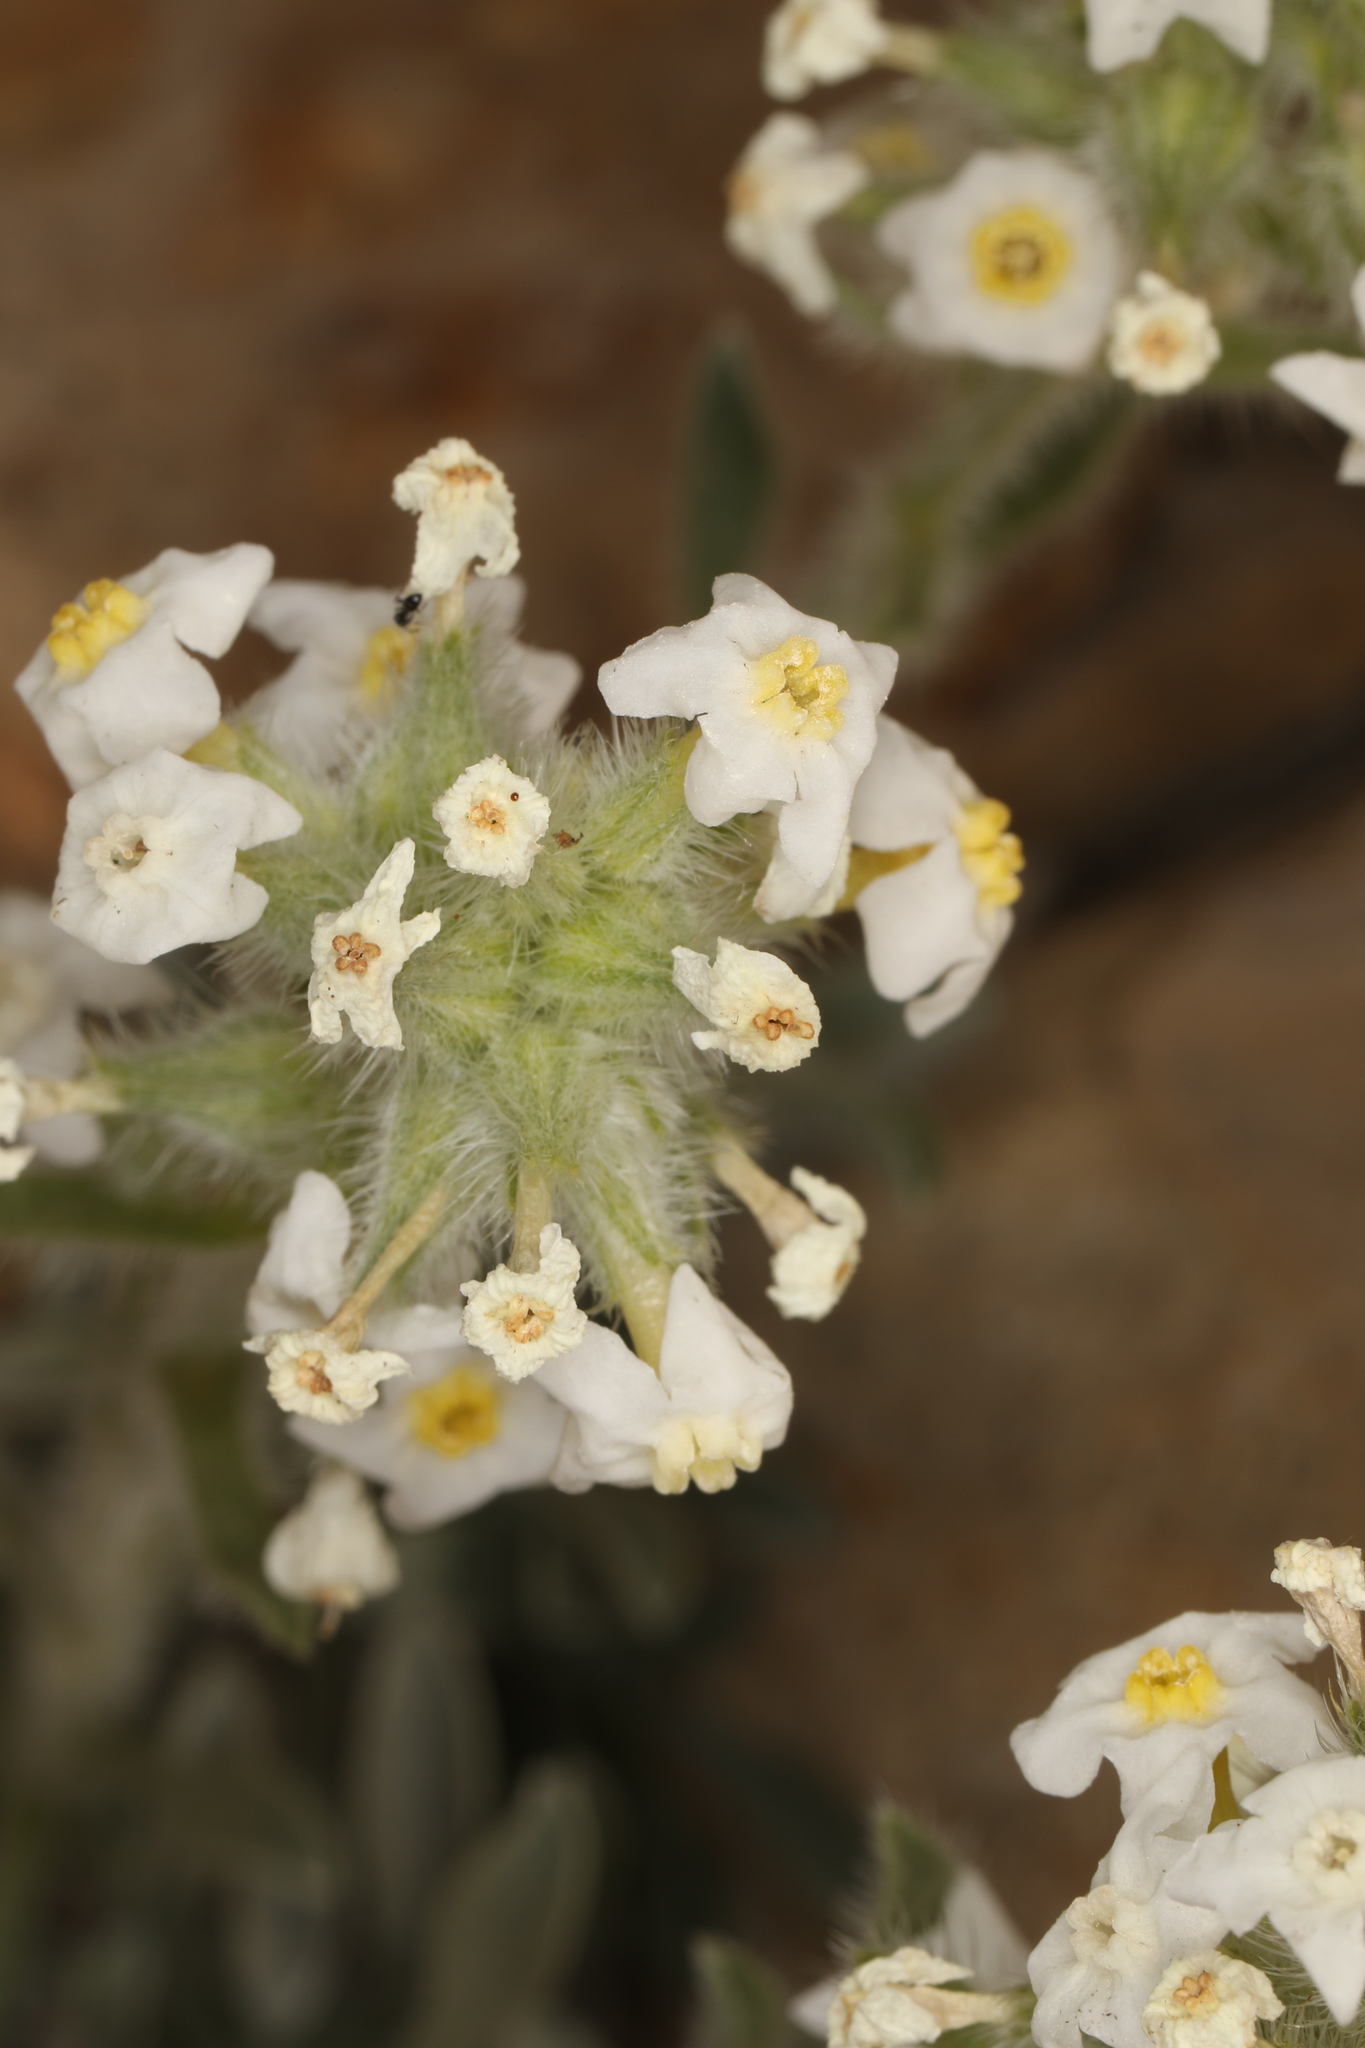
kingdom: Plantae
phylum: Tracheophyta
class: Magnoliopsida
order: Boraginales
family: Boraginaceae
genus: Oreocarya
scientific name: Oreocarya flavoculata
